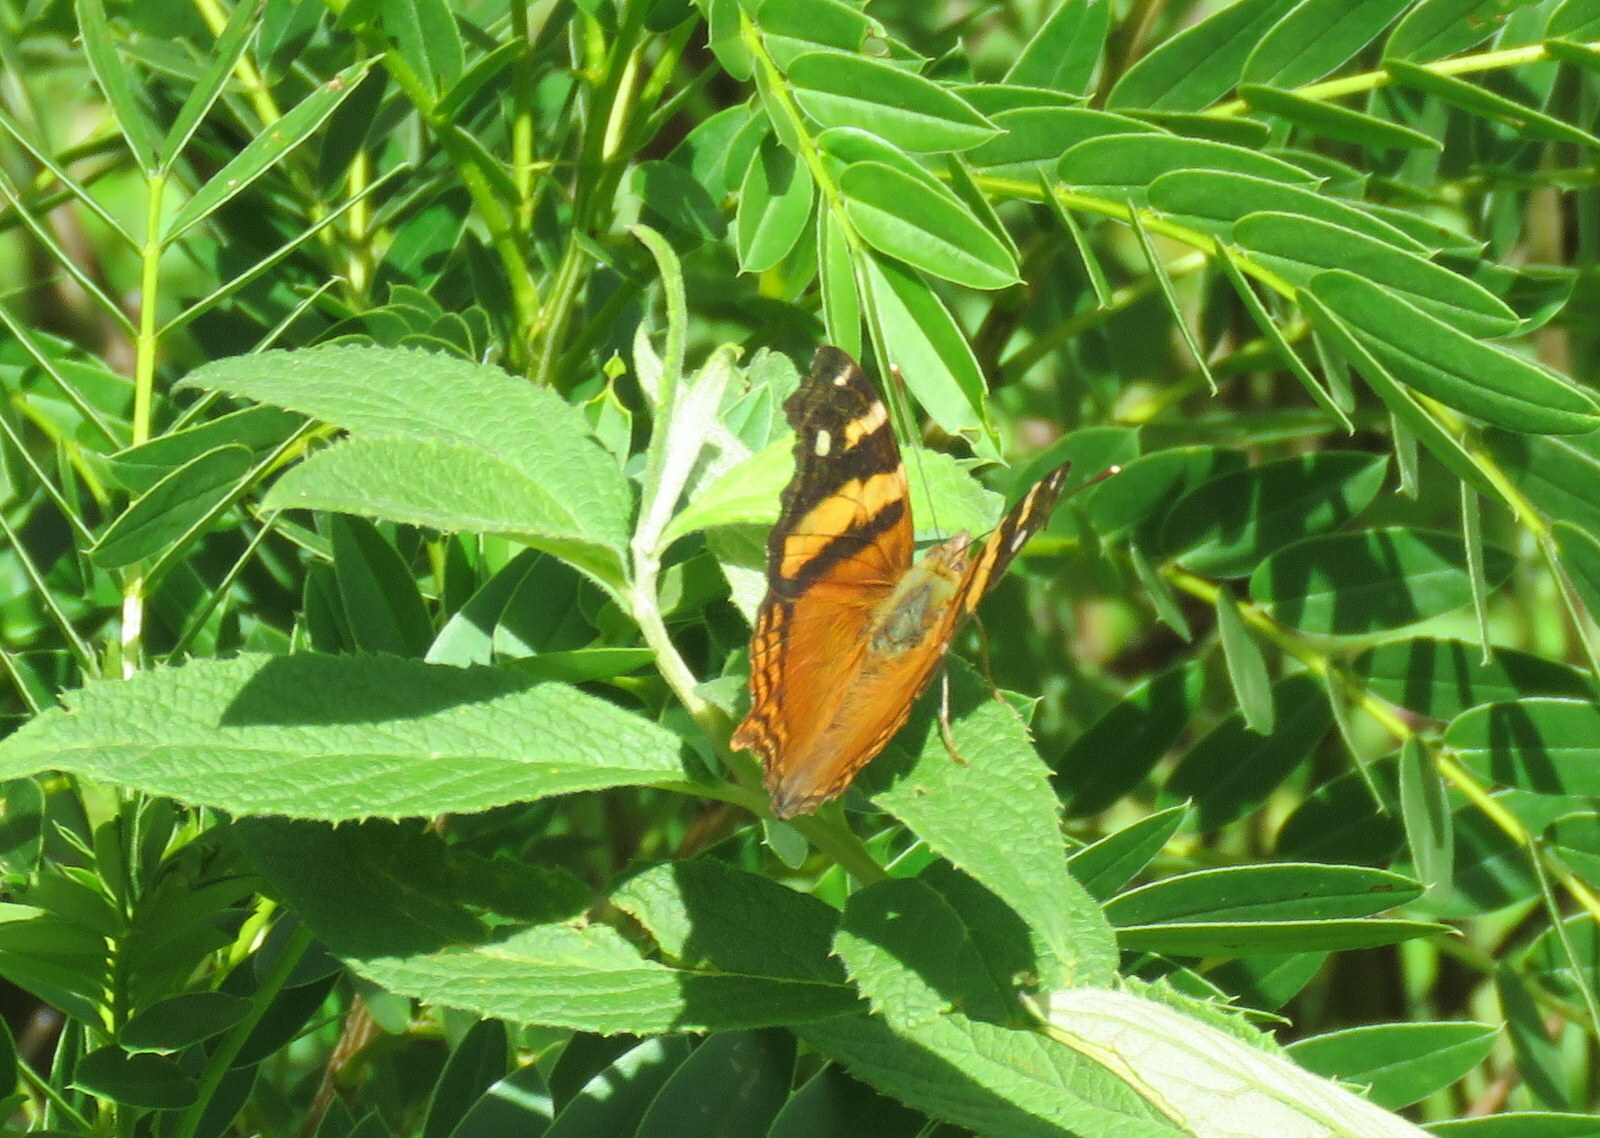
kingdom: Animalia
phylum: Arthropoda
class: Insecta
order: Lepidoptera
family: Nymphalidae
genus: Hypanartia
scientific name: Hypanartia bella
